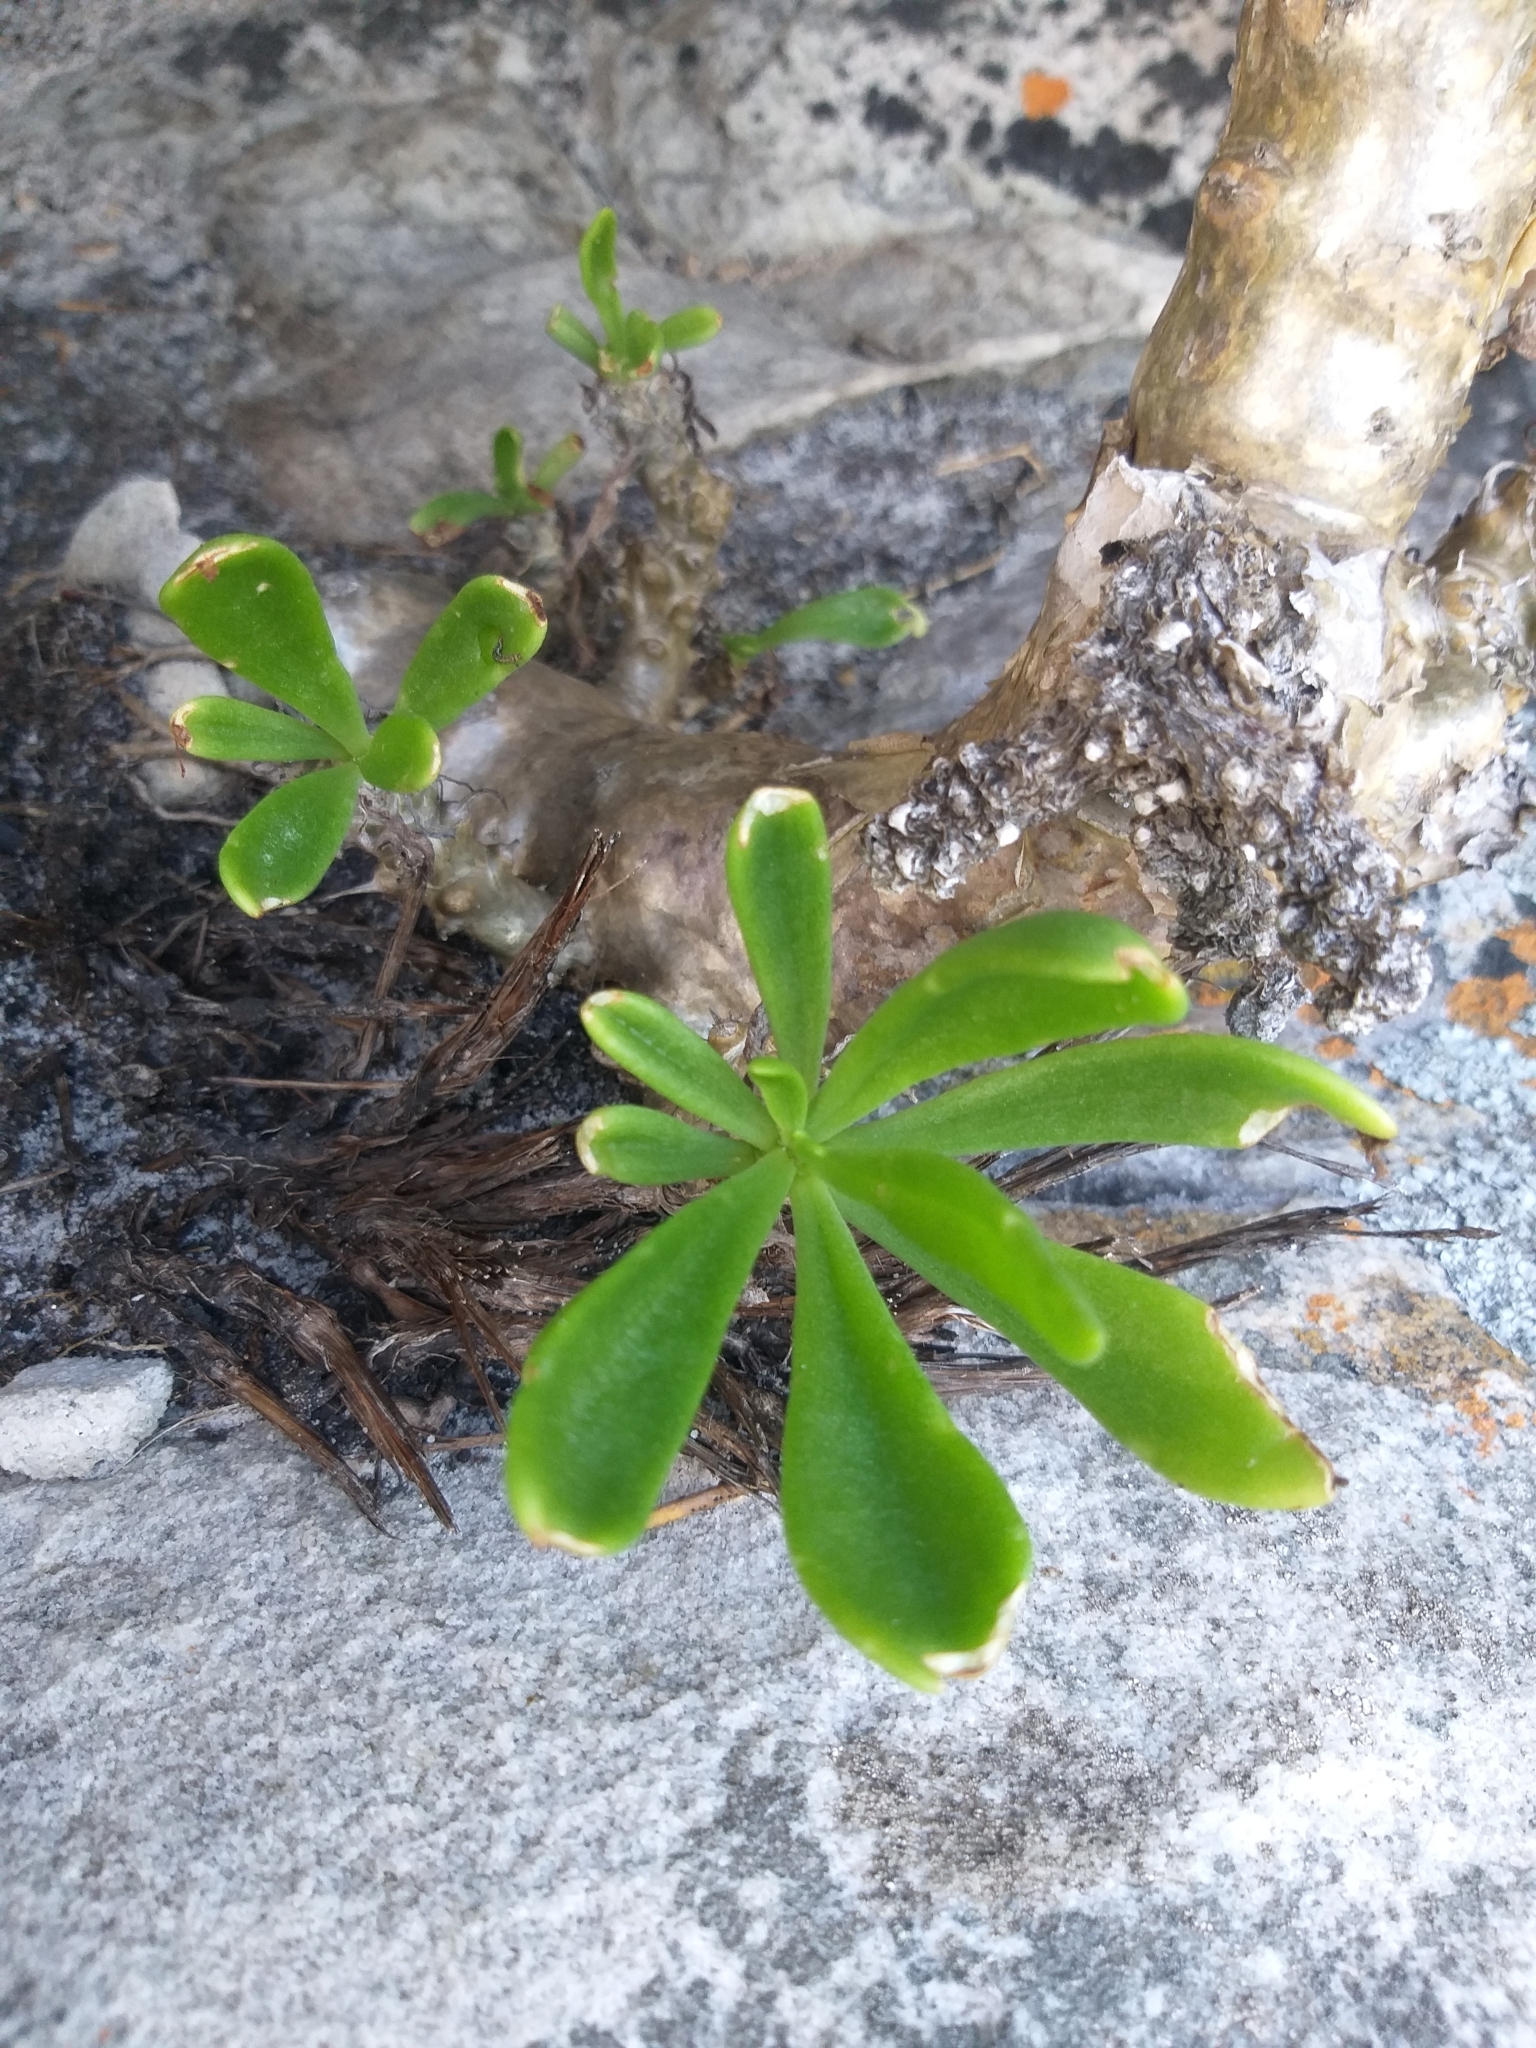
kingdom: Plantae
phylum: Tracheophyta
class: Magnoliopsida
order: Saxifragales
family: Crassulaceae
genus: Tylecodon
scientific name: Tylecodon grandiflorus
